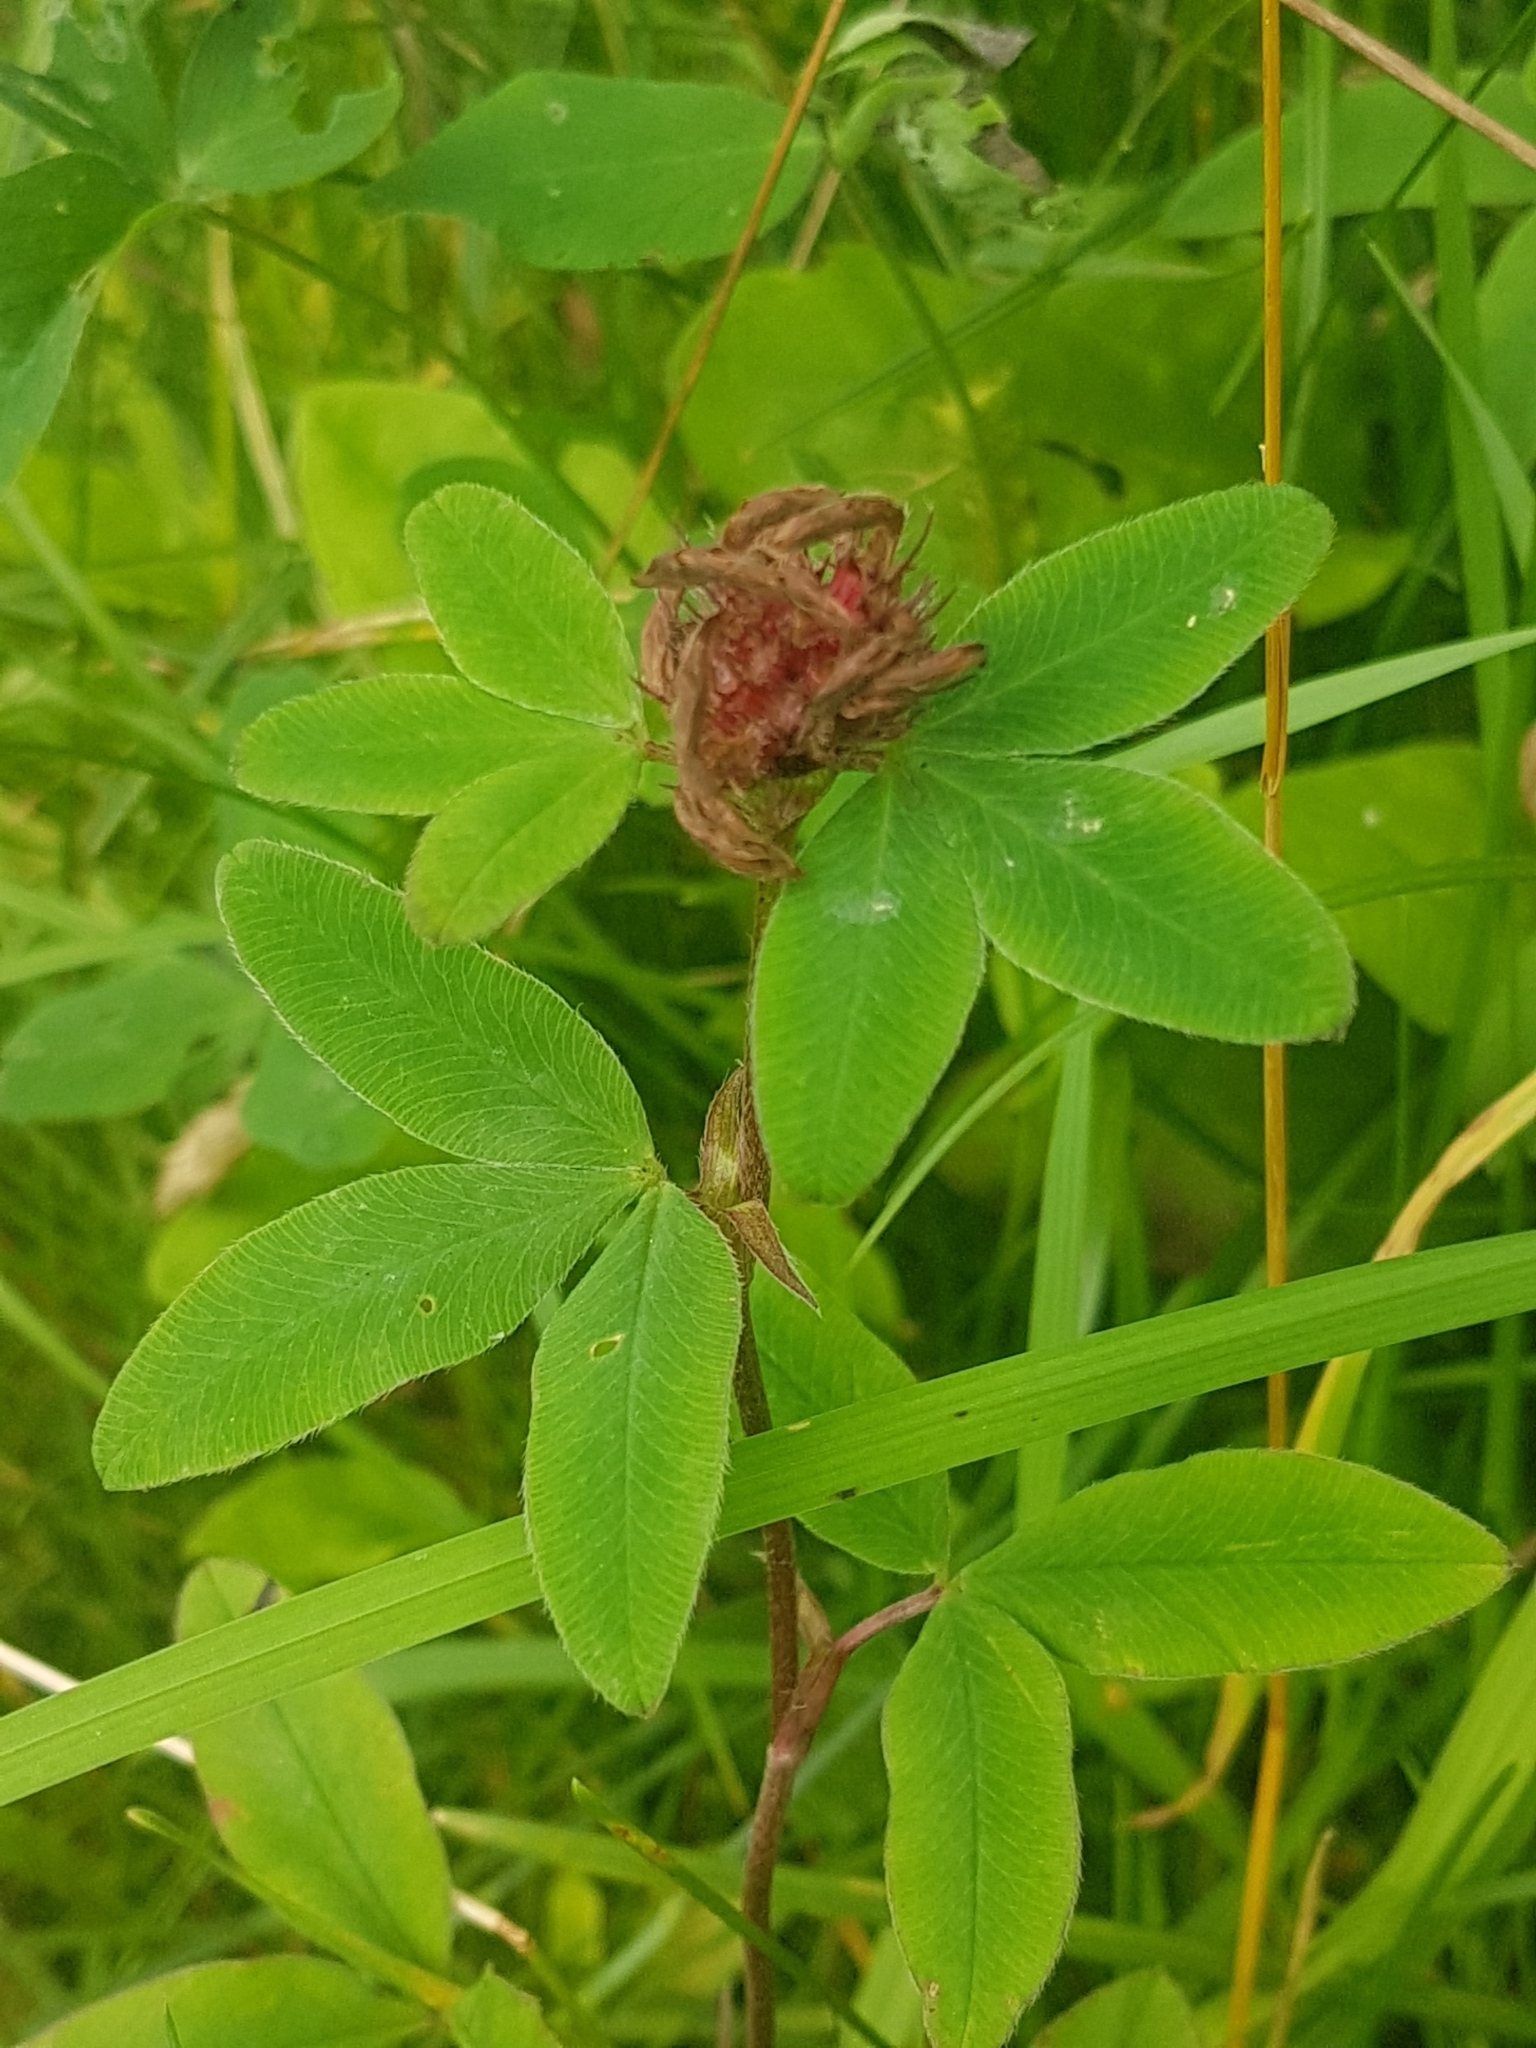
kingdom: Plantae
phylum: Tracheophyta
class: Magnoliopsida
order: Fabales
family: Fabaceae
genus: Trifolium
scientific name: Trifolium medium
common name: Zigzag clover
